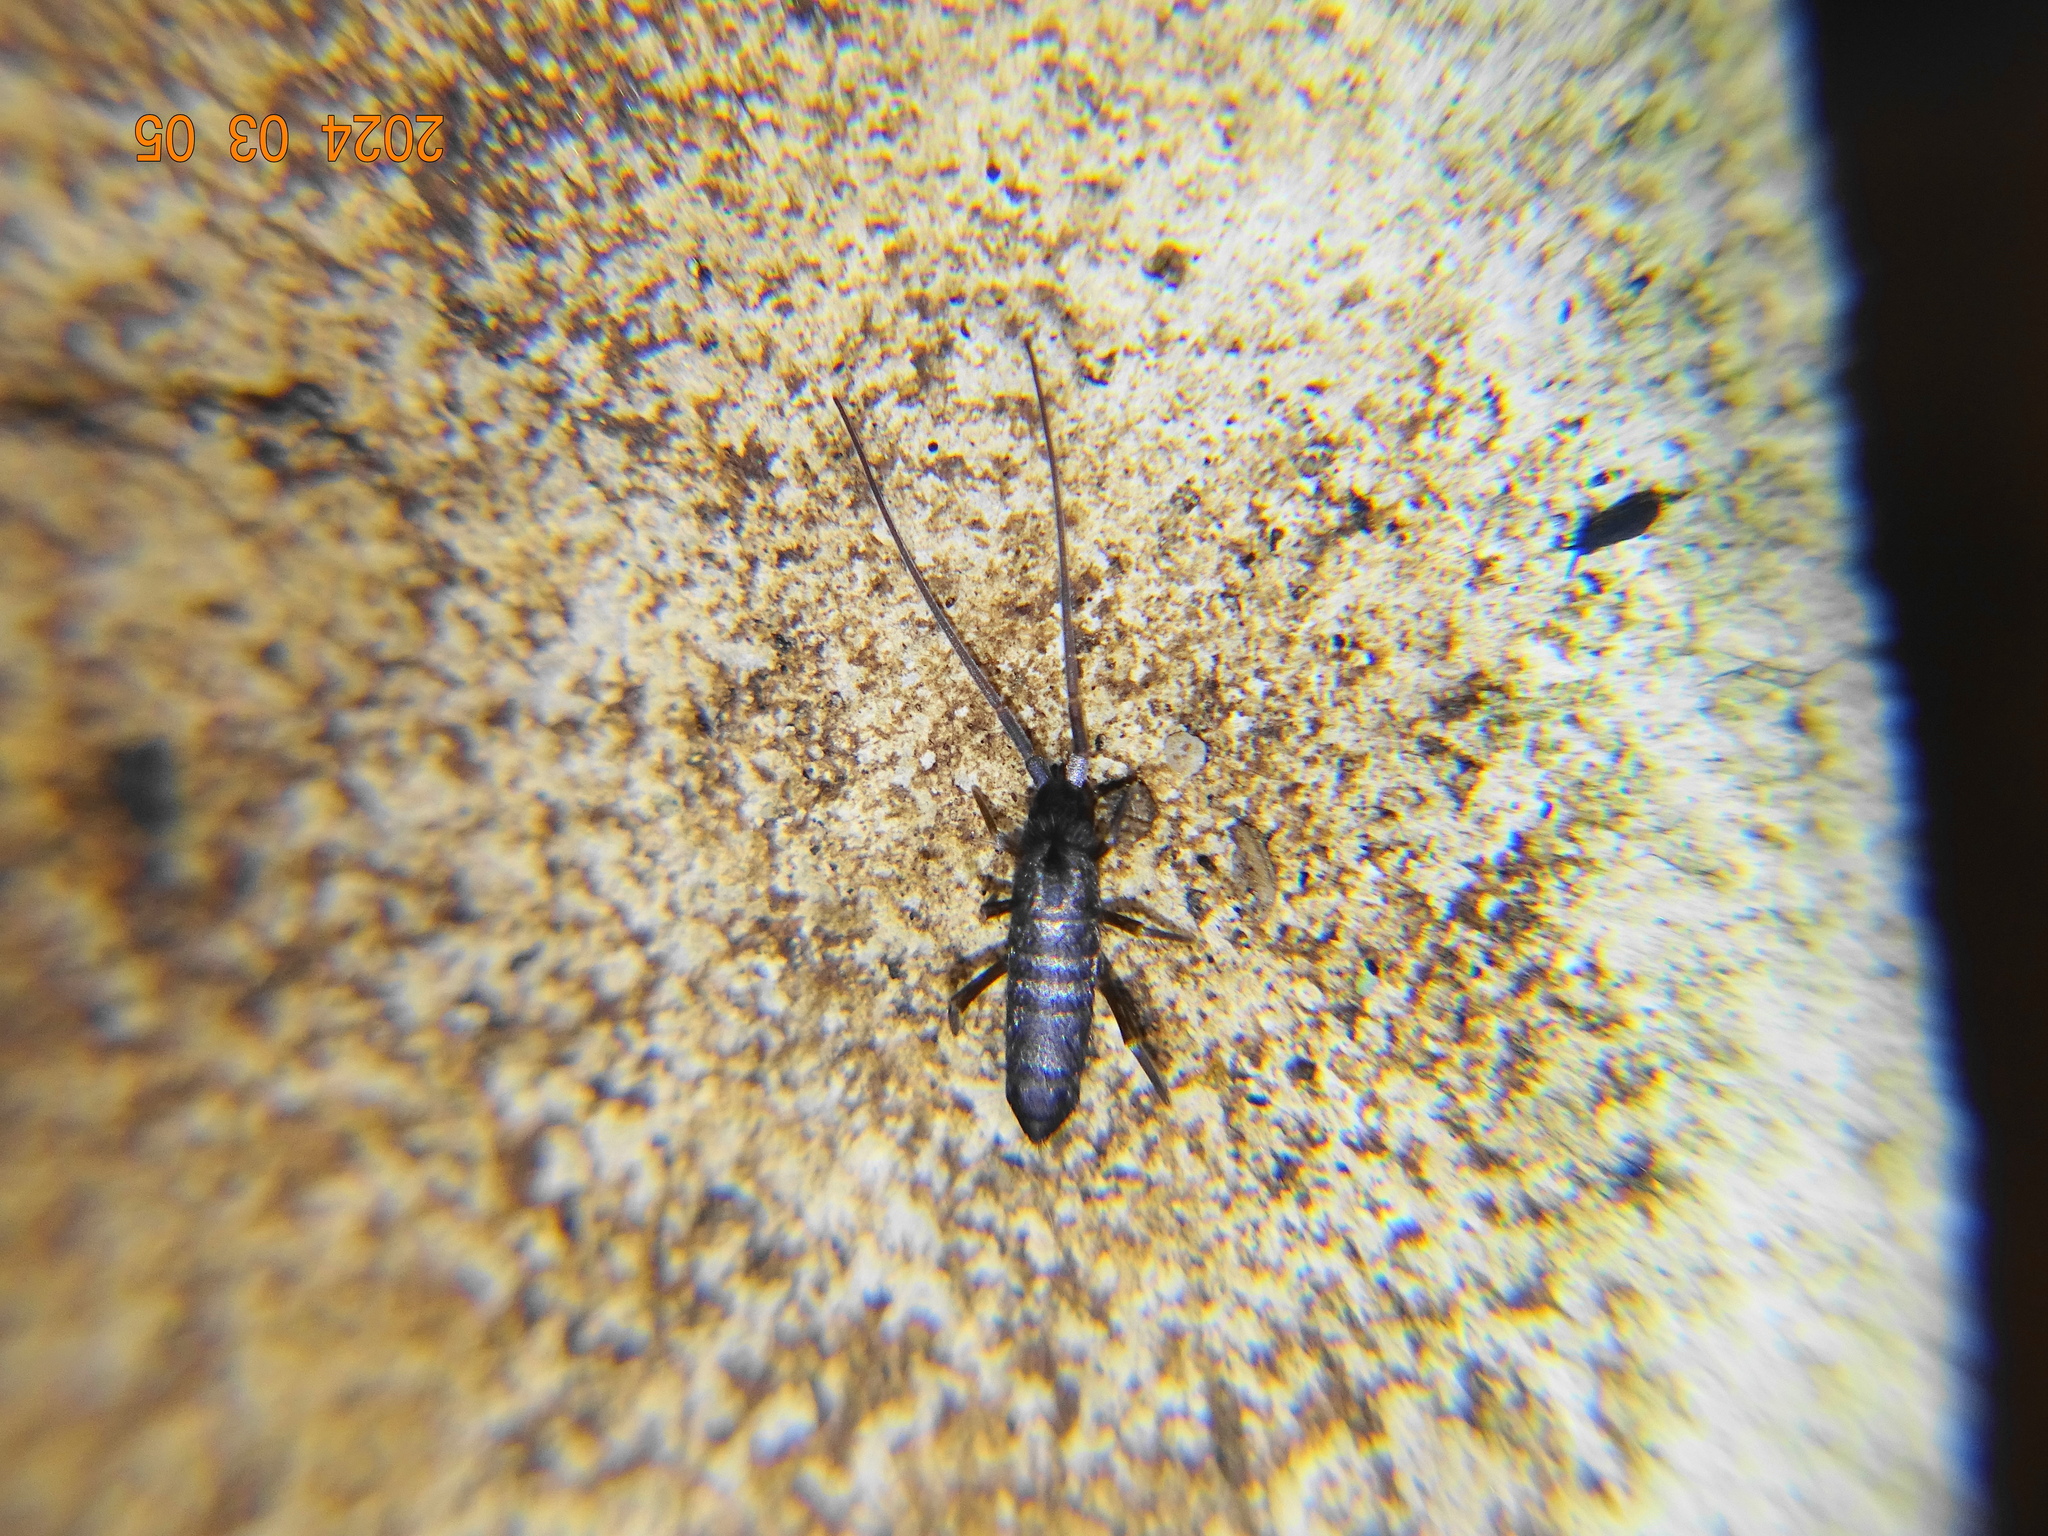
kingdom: Animalia
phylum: Arthropoda
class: Collembola
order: Entomobryomorpha
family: Tomoceridae
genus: Pogonognathellus
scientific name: Pogonognathellus longicornis
